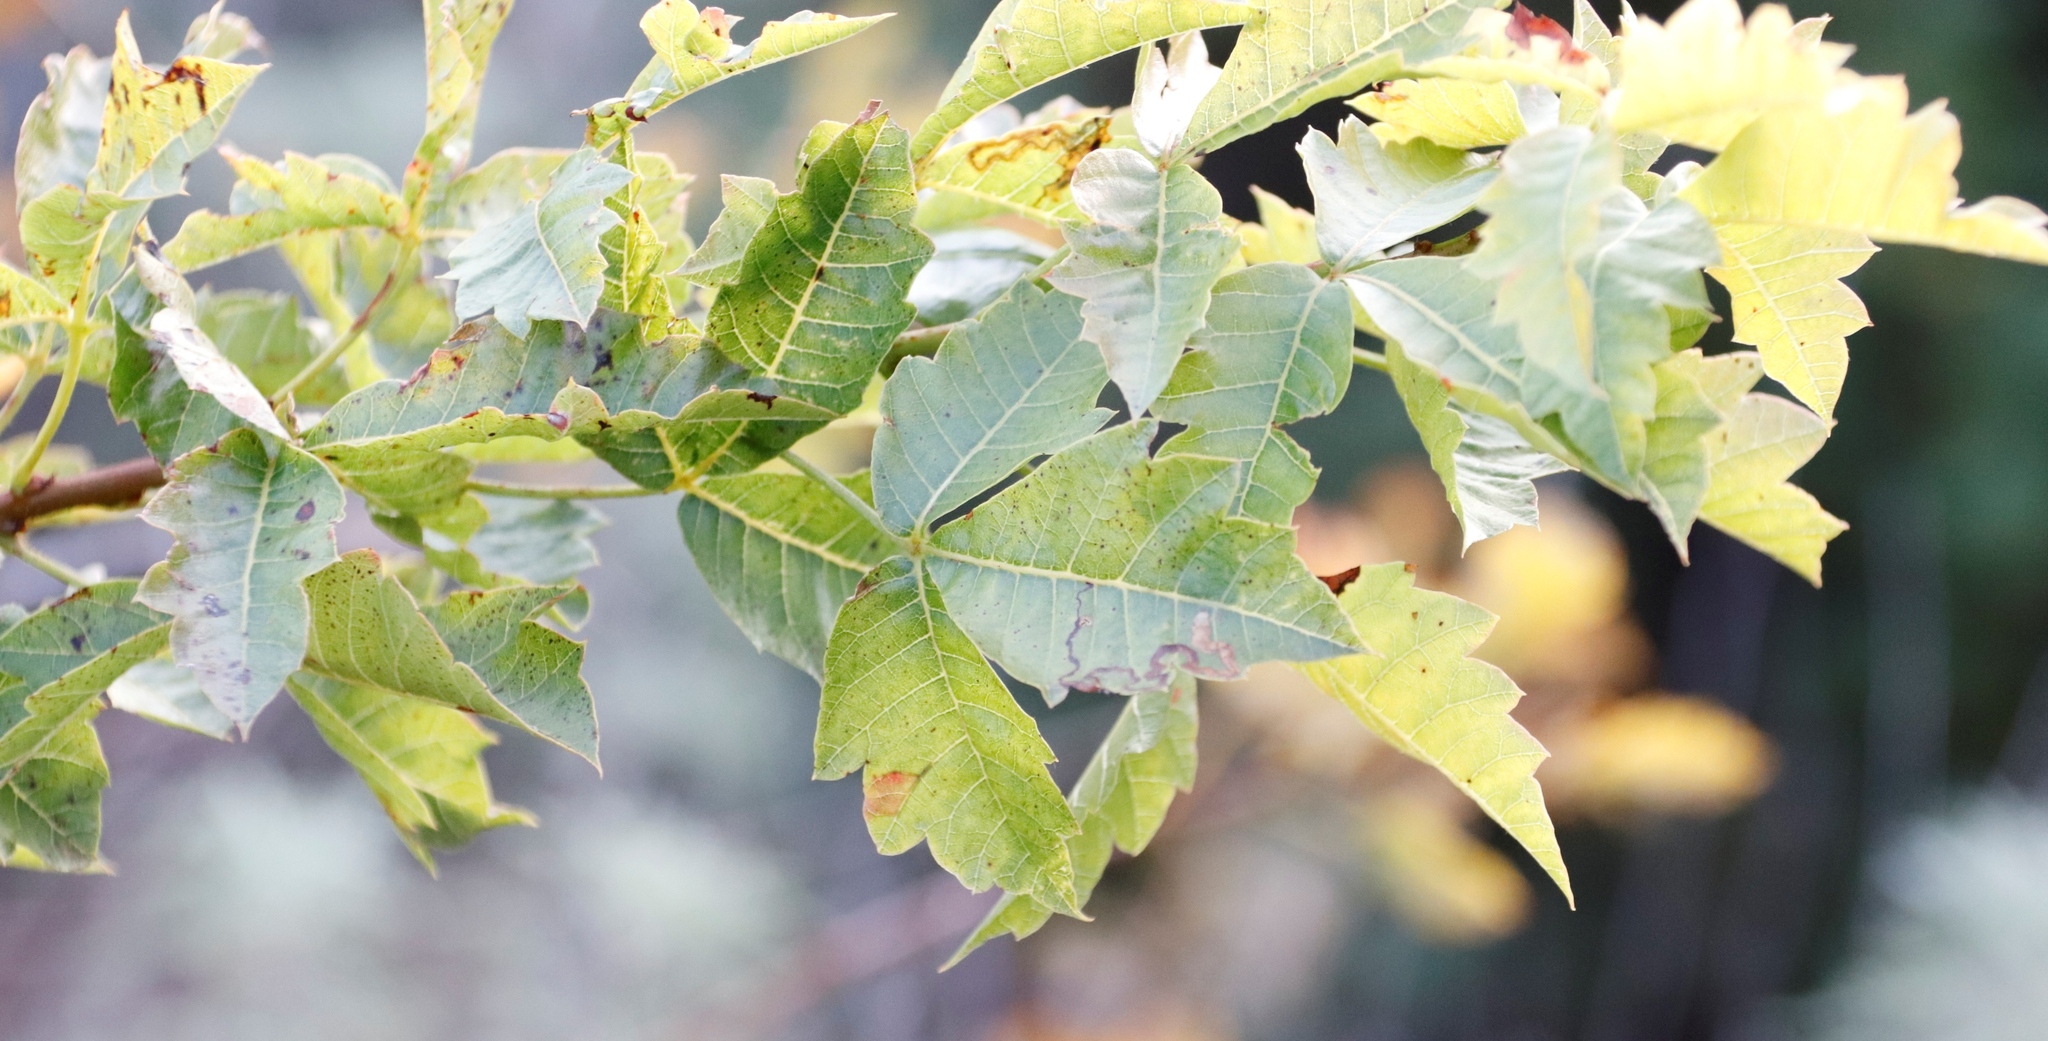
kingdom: Plantae
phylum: Tracheophyta
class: Magnoliopsida
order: Sapindales
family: Anacardiaceae
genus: Searsia
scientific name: Searsia dentata
